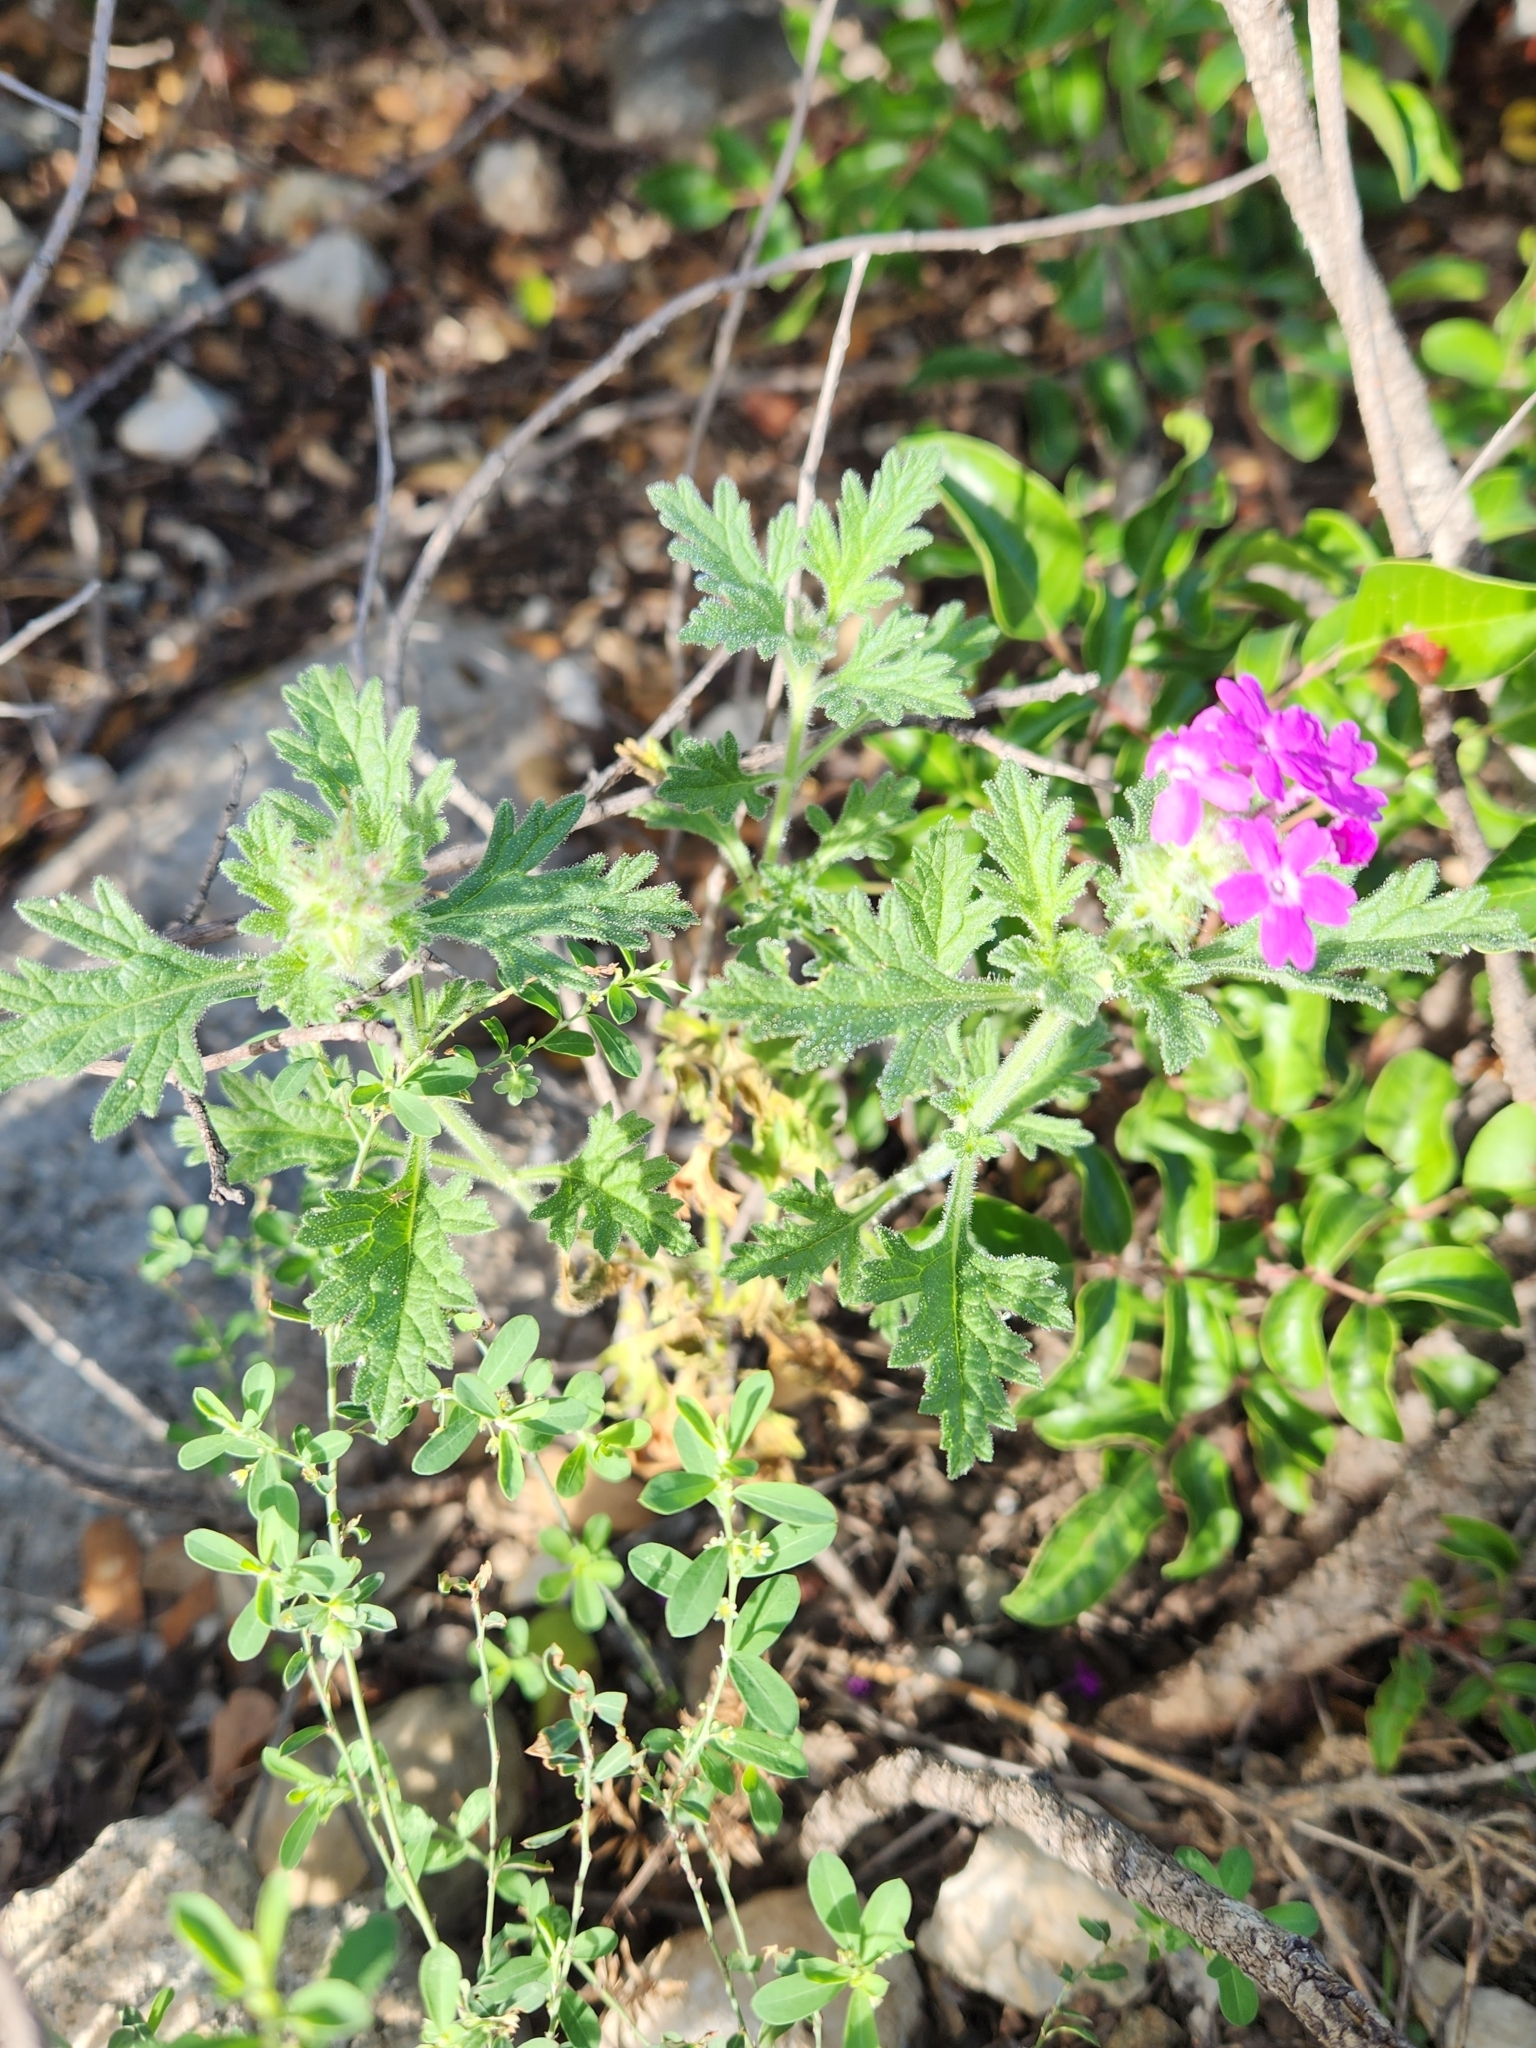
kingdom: Plantae
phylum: Tracheophyta
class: Magnoliopsida
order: Lamiales
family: Verbenaceae
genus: Verbena
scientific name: Verbena tumidula
